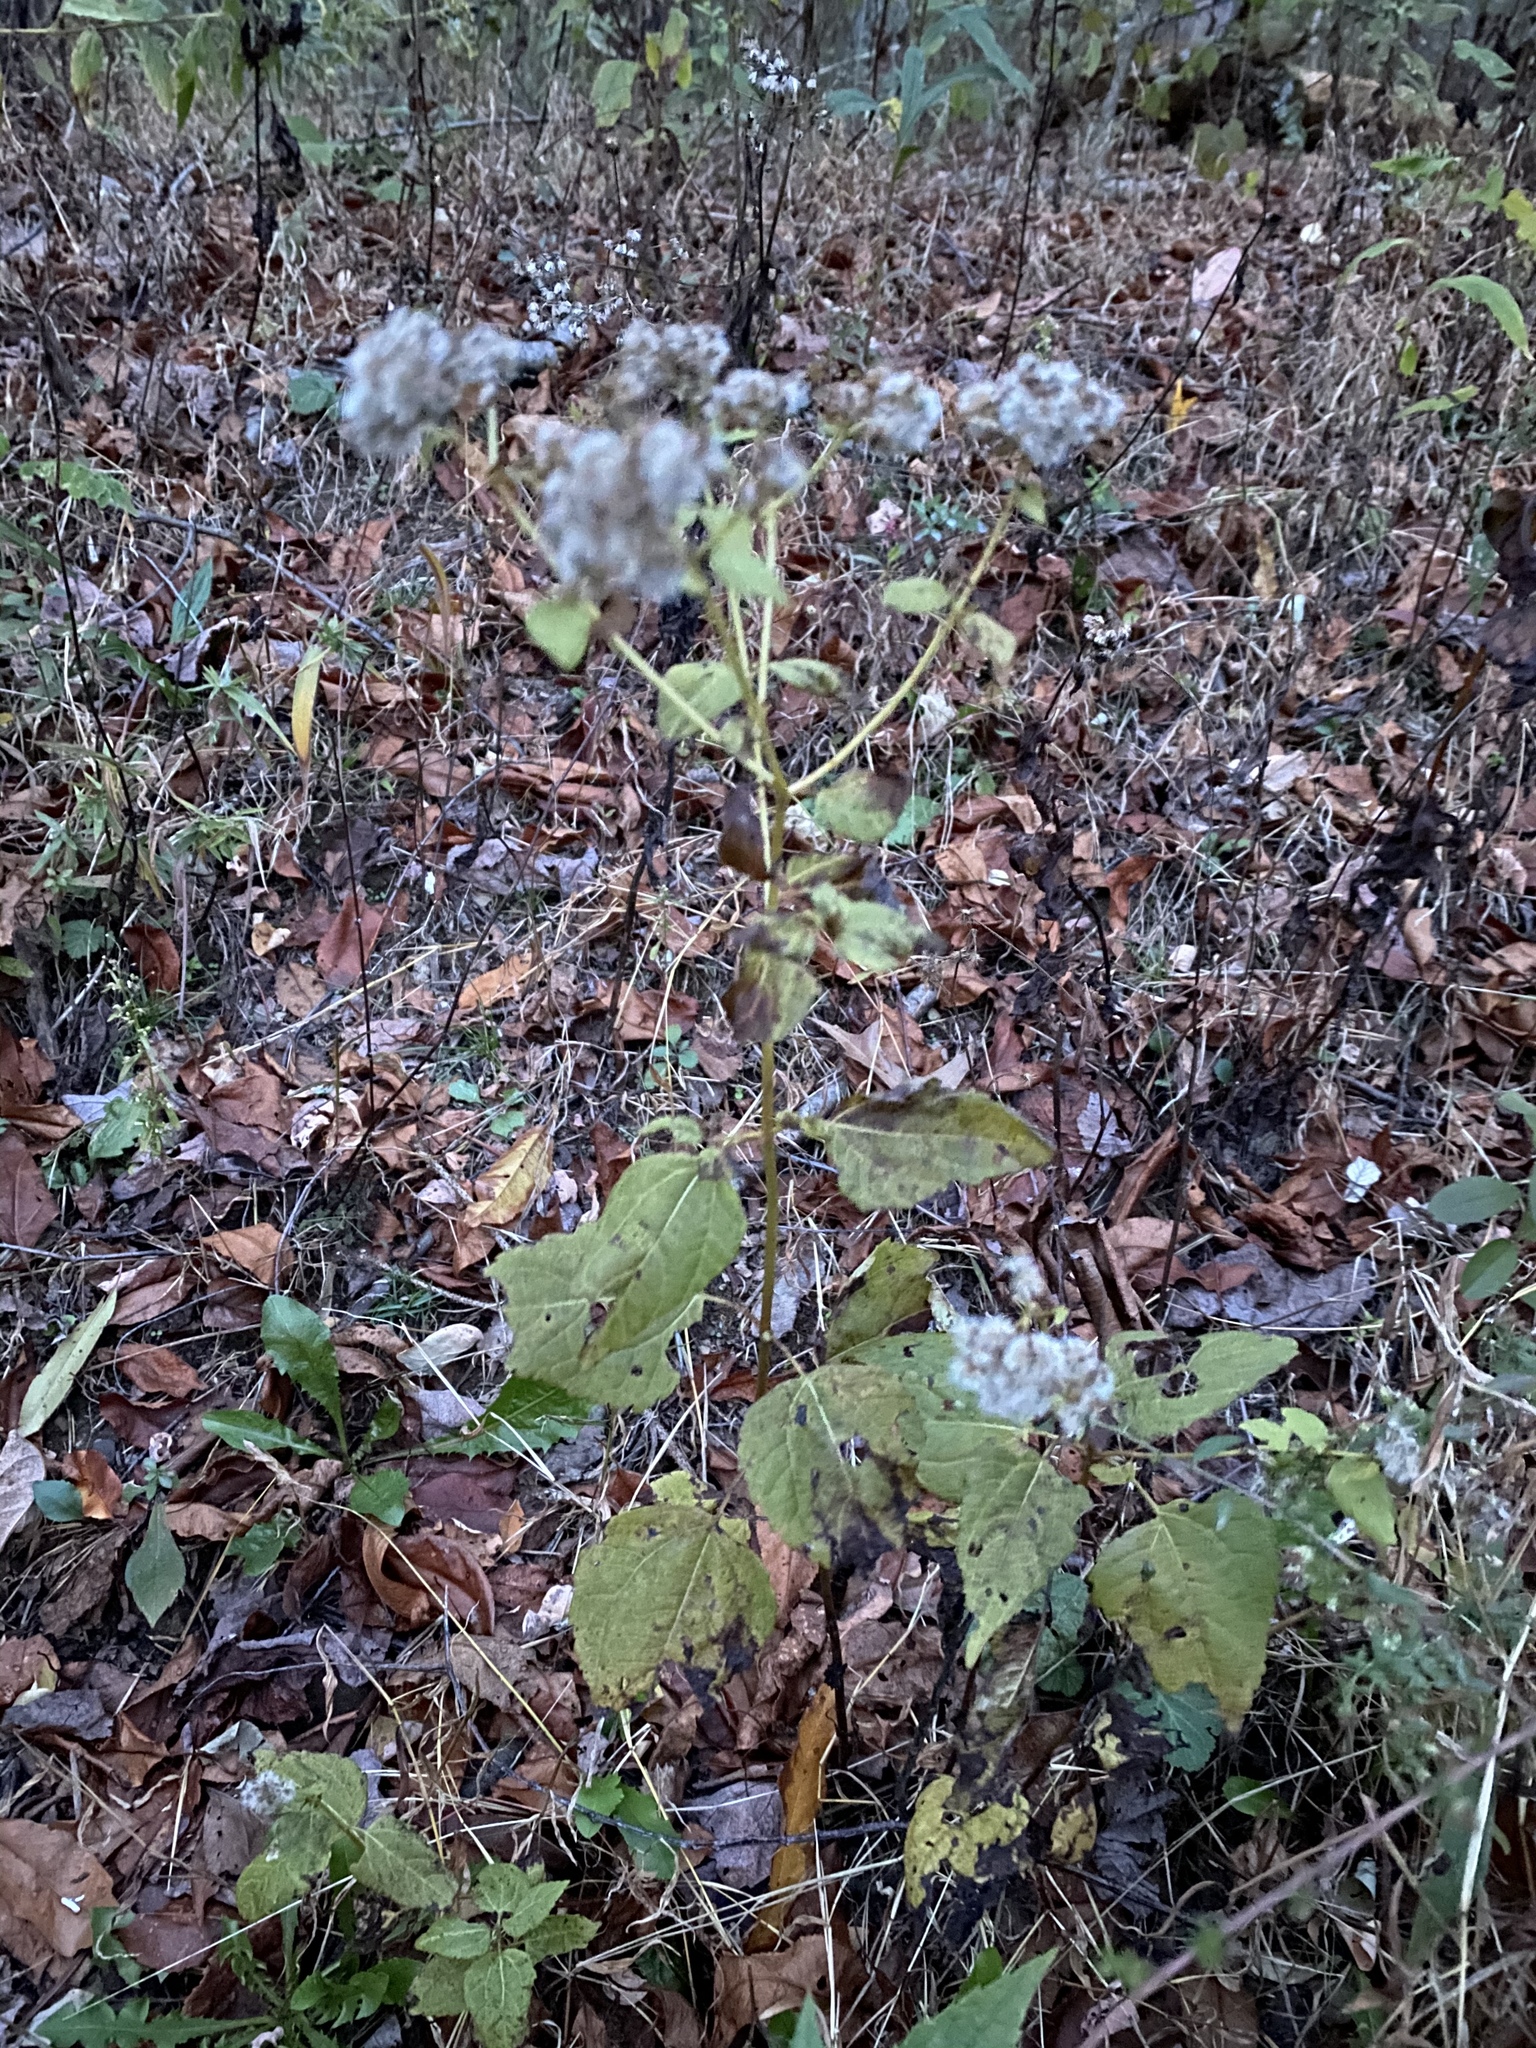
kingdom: Plantae
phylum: Tracheophyta
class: Magnoliopsida
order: Asterales
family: Asteraceae
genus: Ageratina
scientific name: Ageratina altissima
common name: White snakeroot
